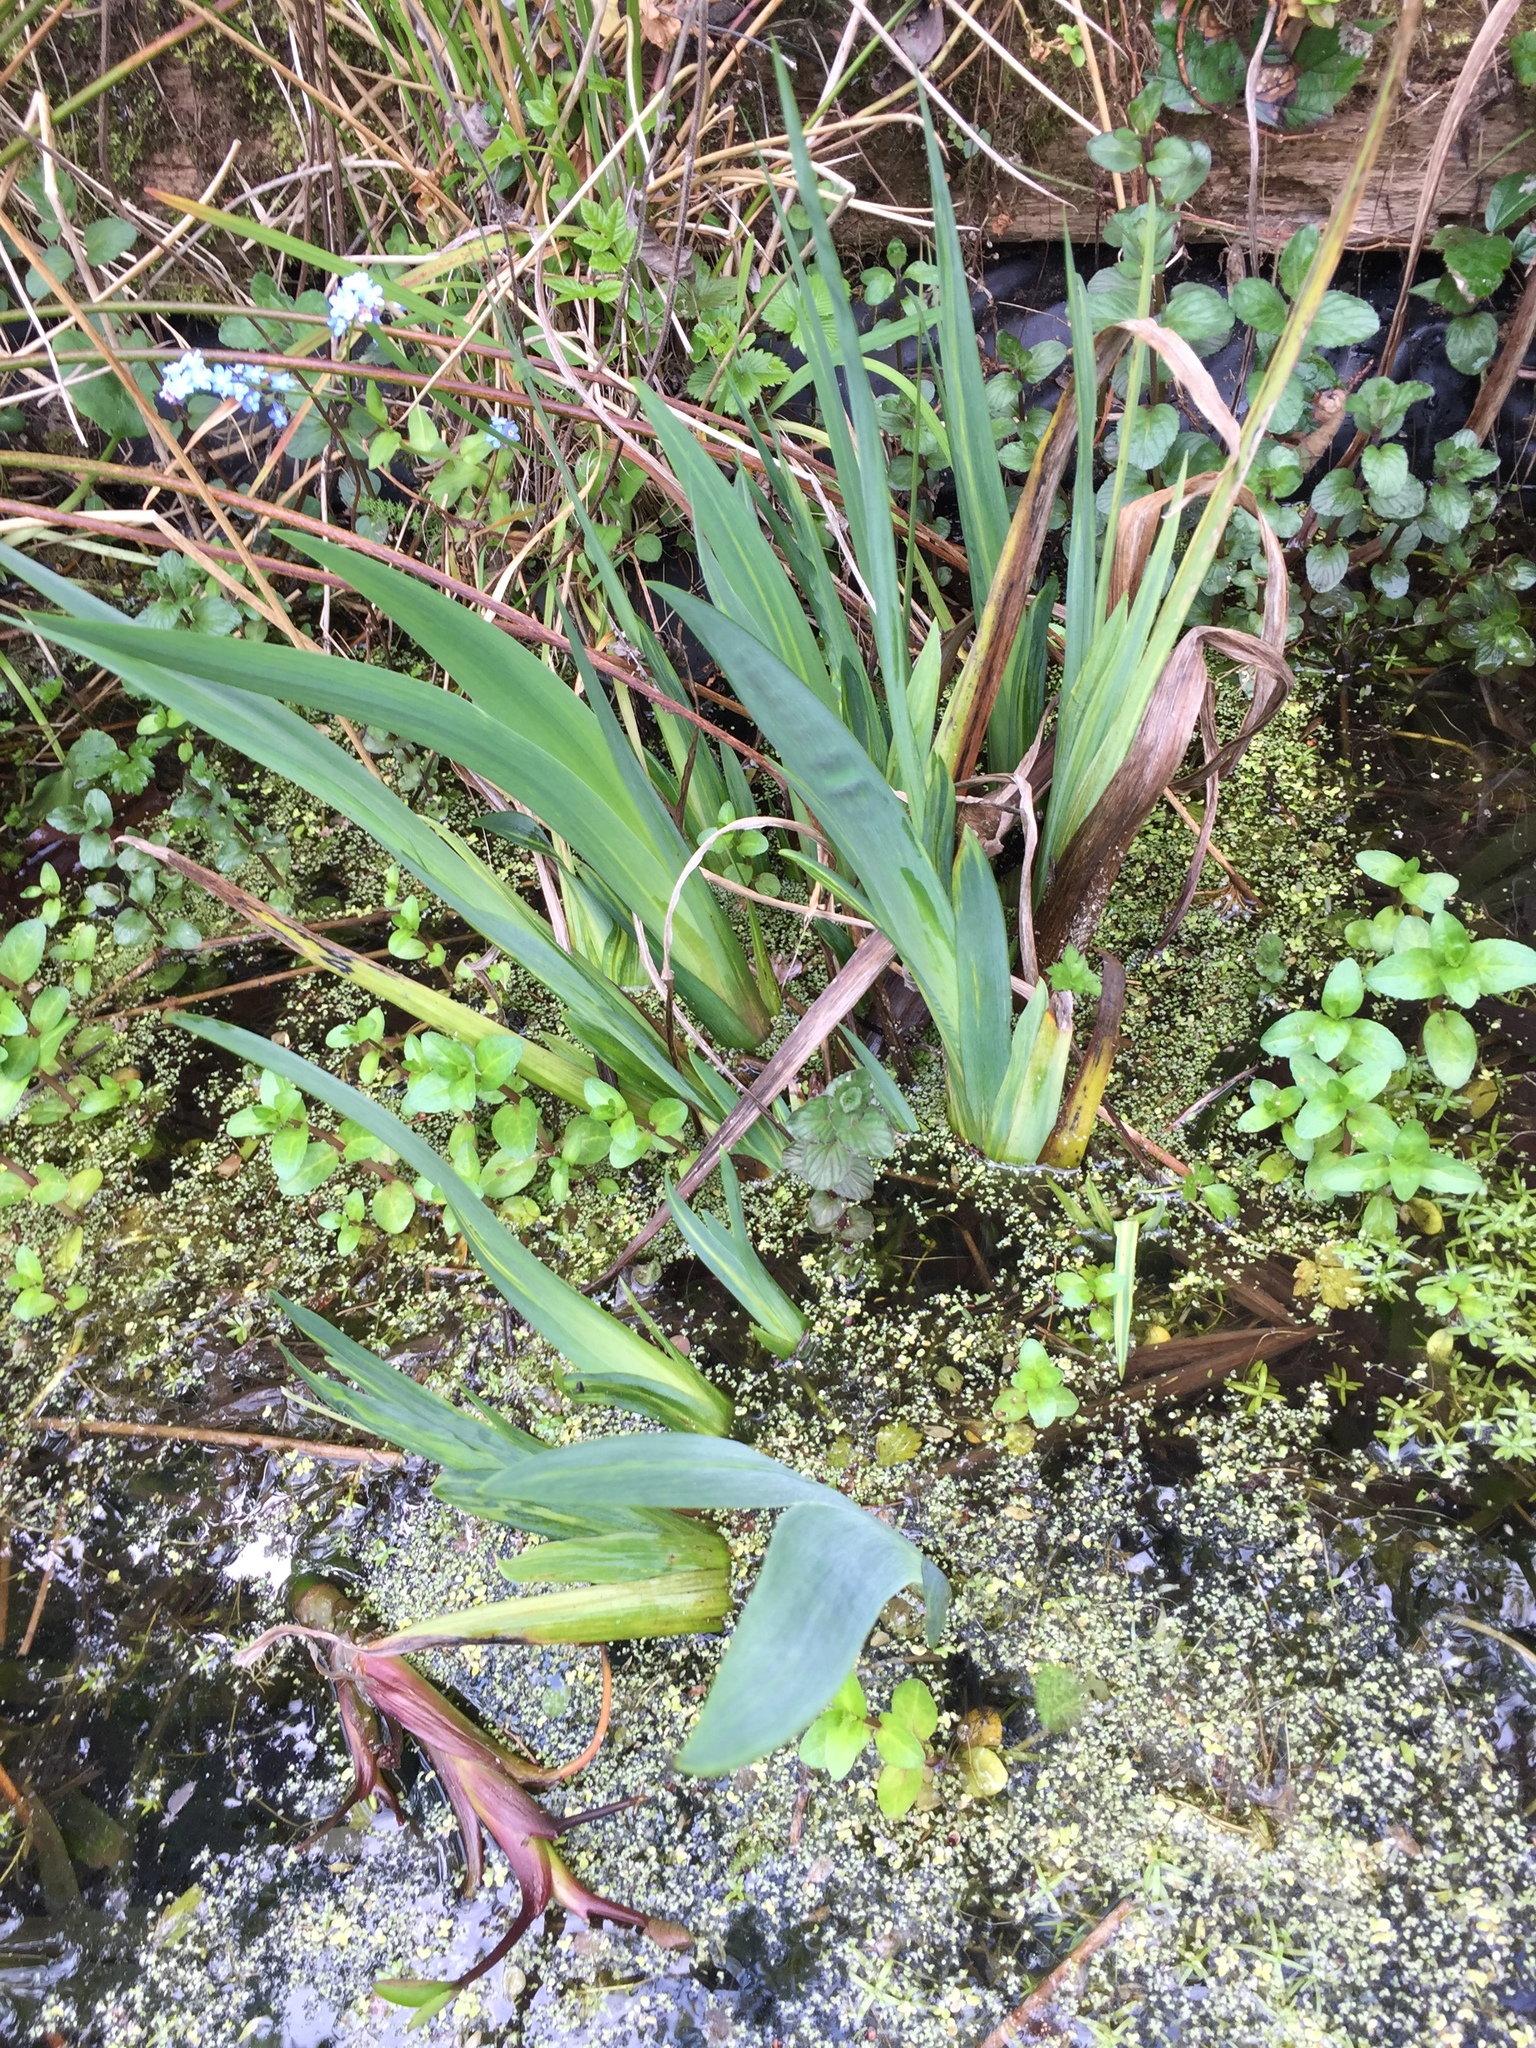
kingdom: Plantae
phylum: Tracheophyta
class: Liliopsida
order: Asparagales
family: Iridaceae
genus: Iris
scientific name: Iris pseudacorus
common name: Yellow flag
